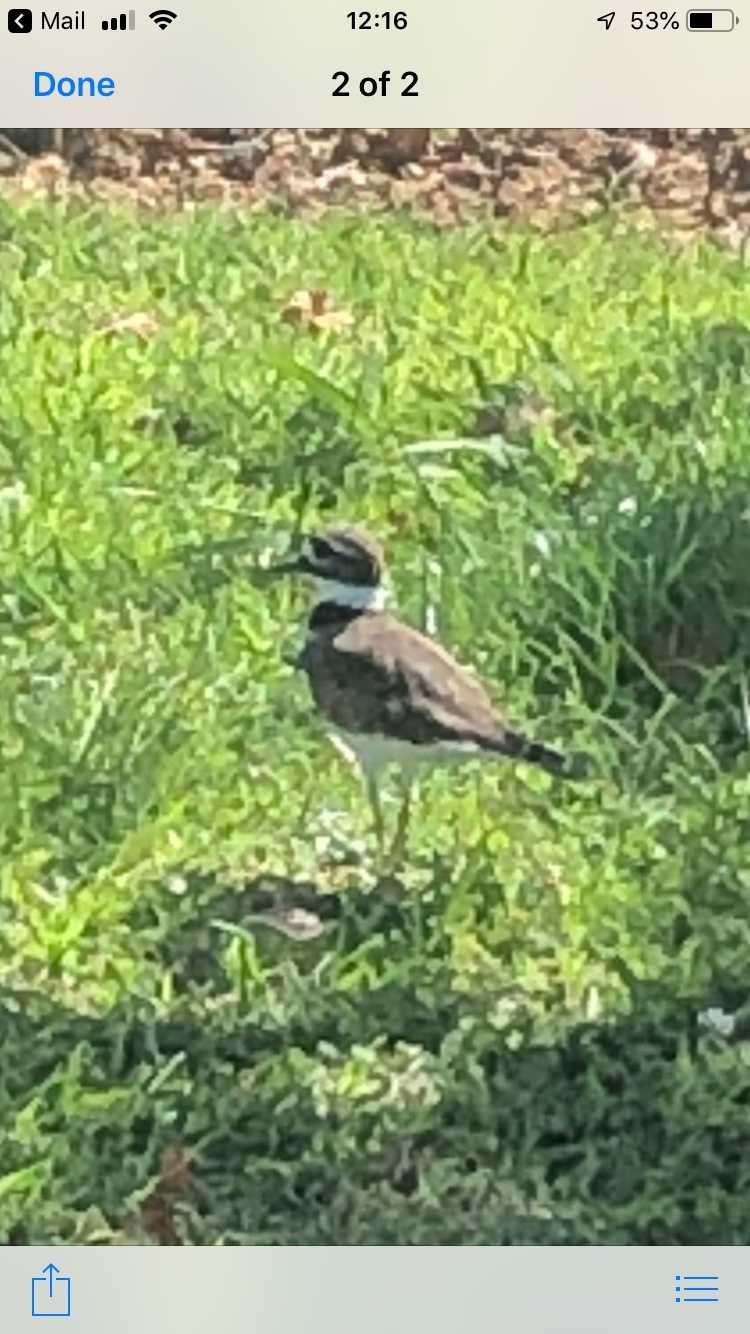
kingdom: Animalia
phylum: Chordata
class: Aves
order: Charadriiformes
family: Charadriidae
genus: Charadrius
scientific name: Charadrius vociferus
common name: Killdeer
